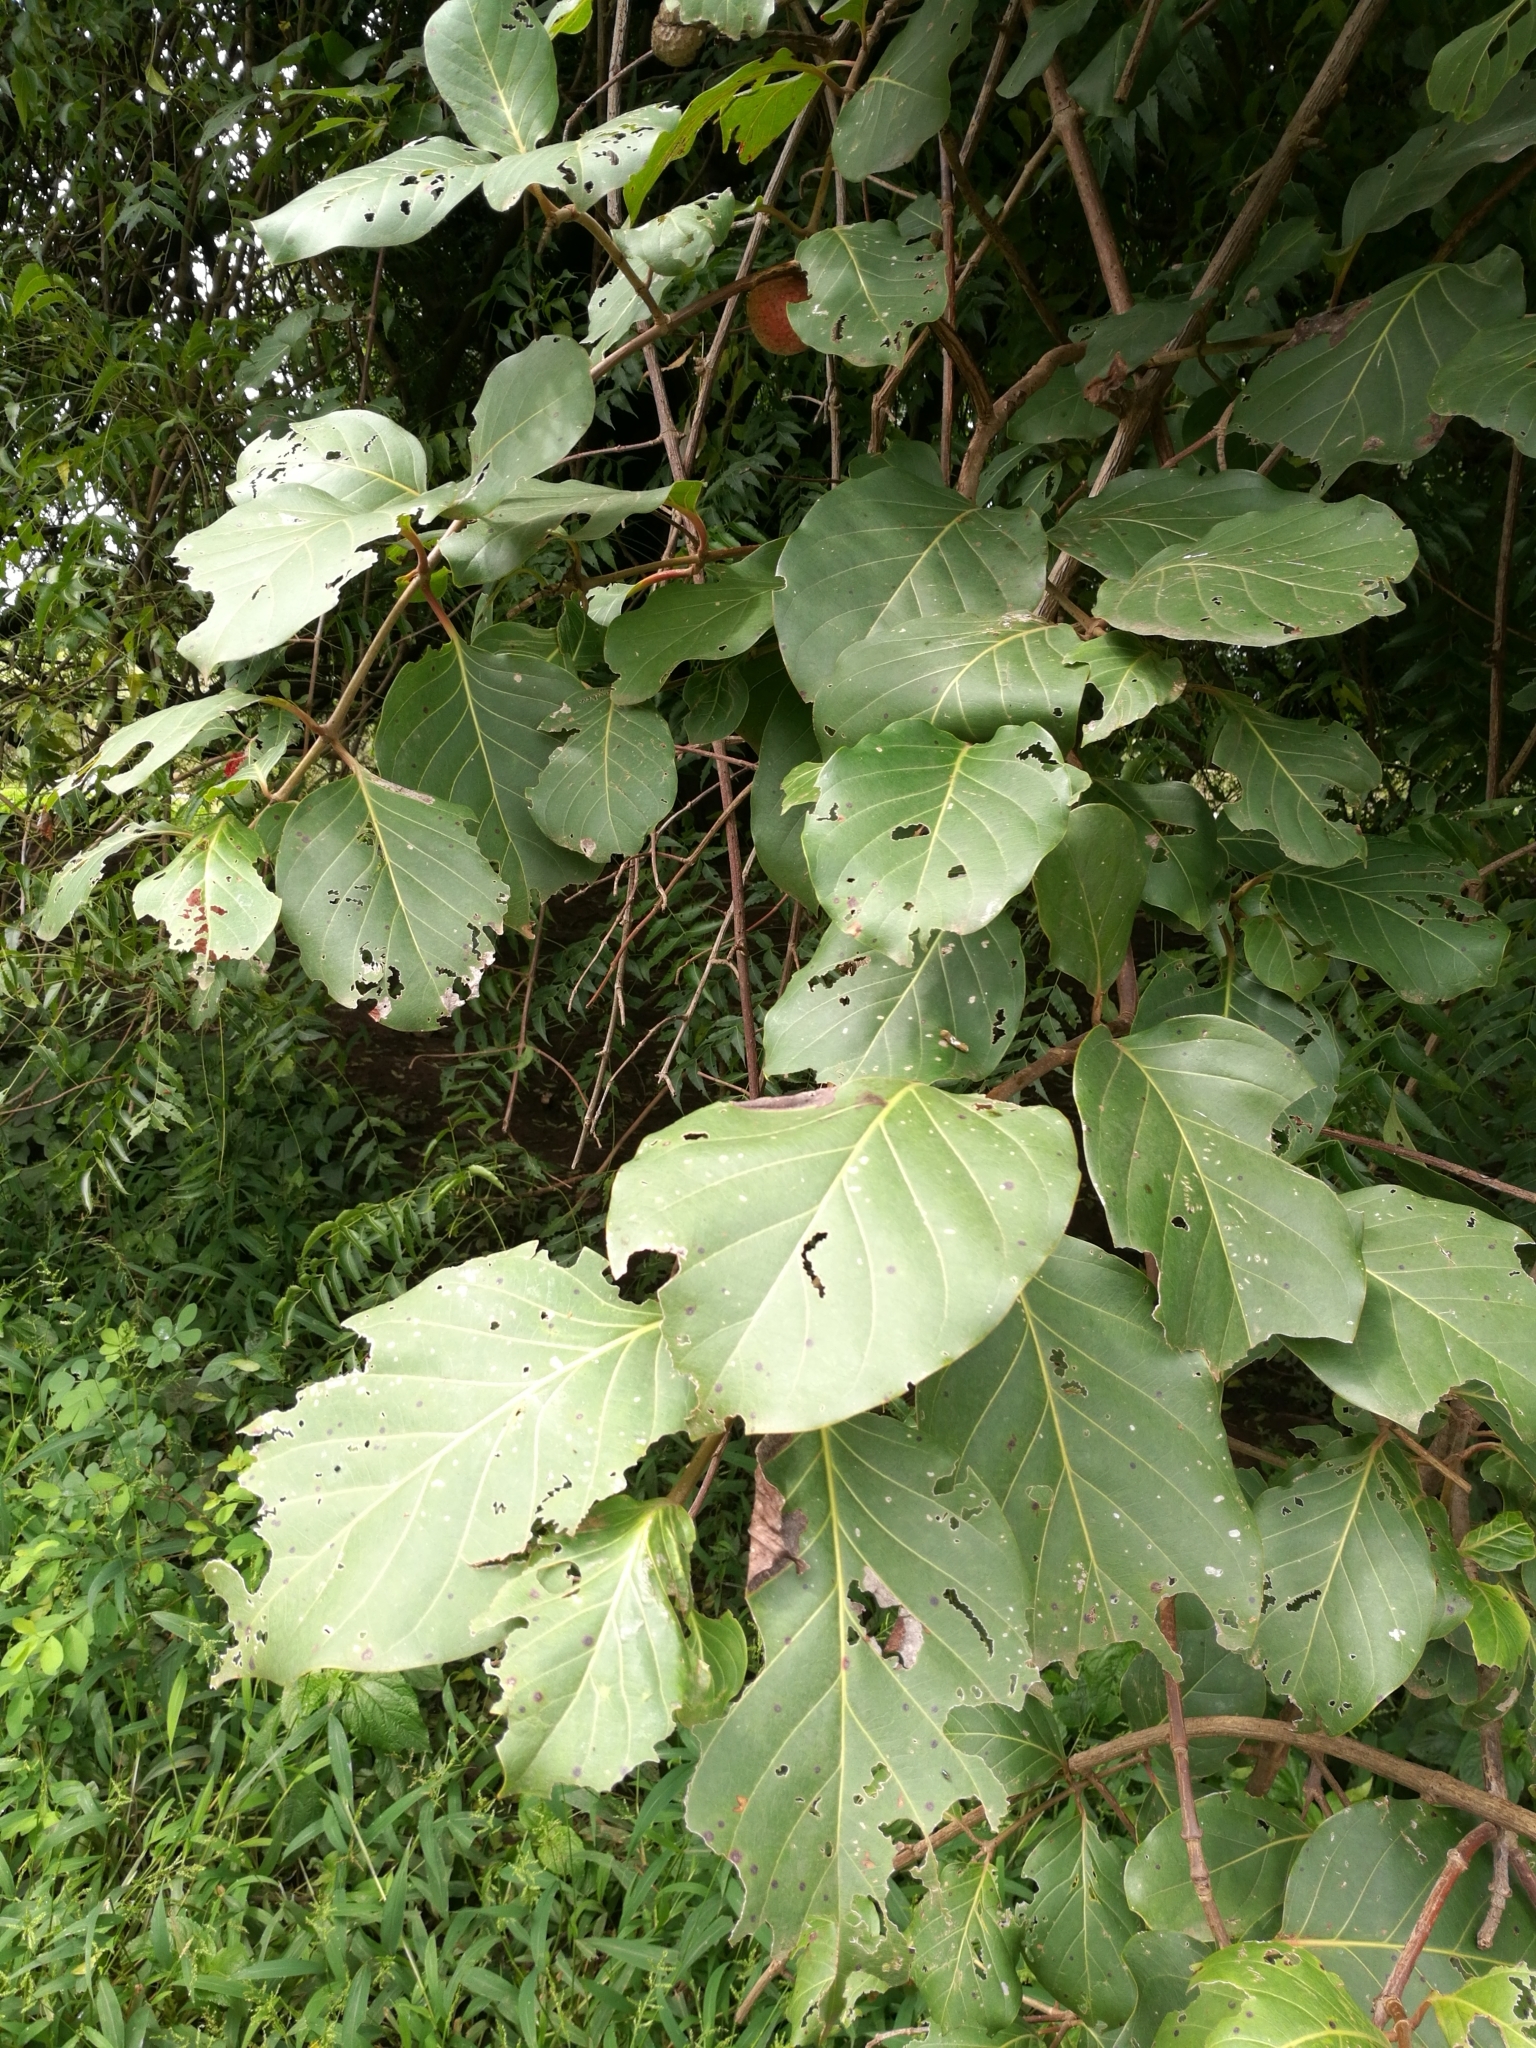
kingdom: Plantae
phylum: Tracheophyta
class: Magnoliopsida
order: Gentianales
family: Rubiaceae
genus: Nauclea
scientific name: Nauclea latifolia
